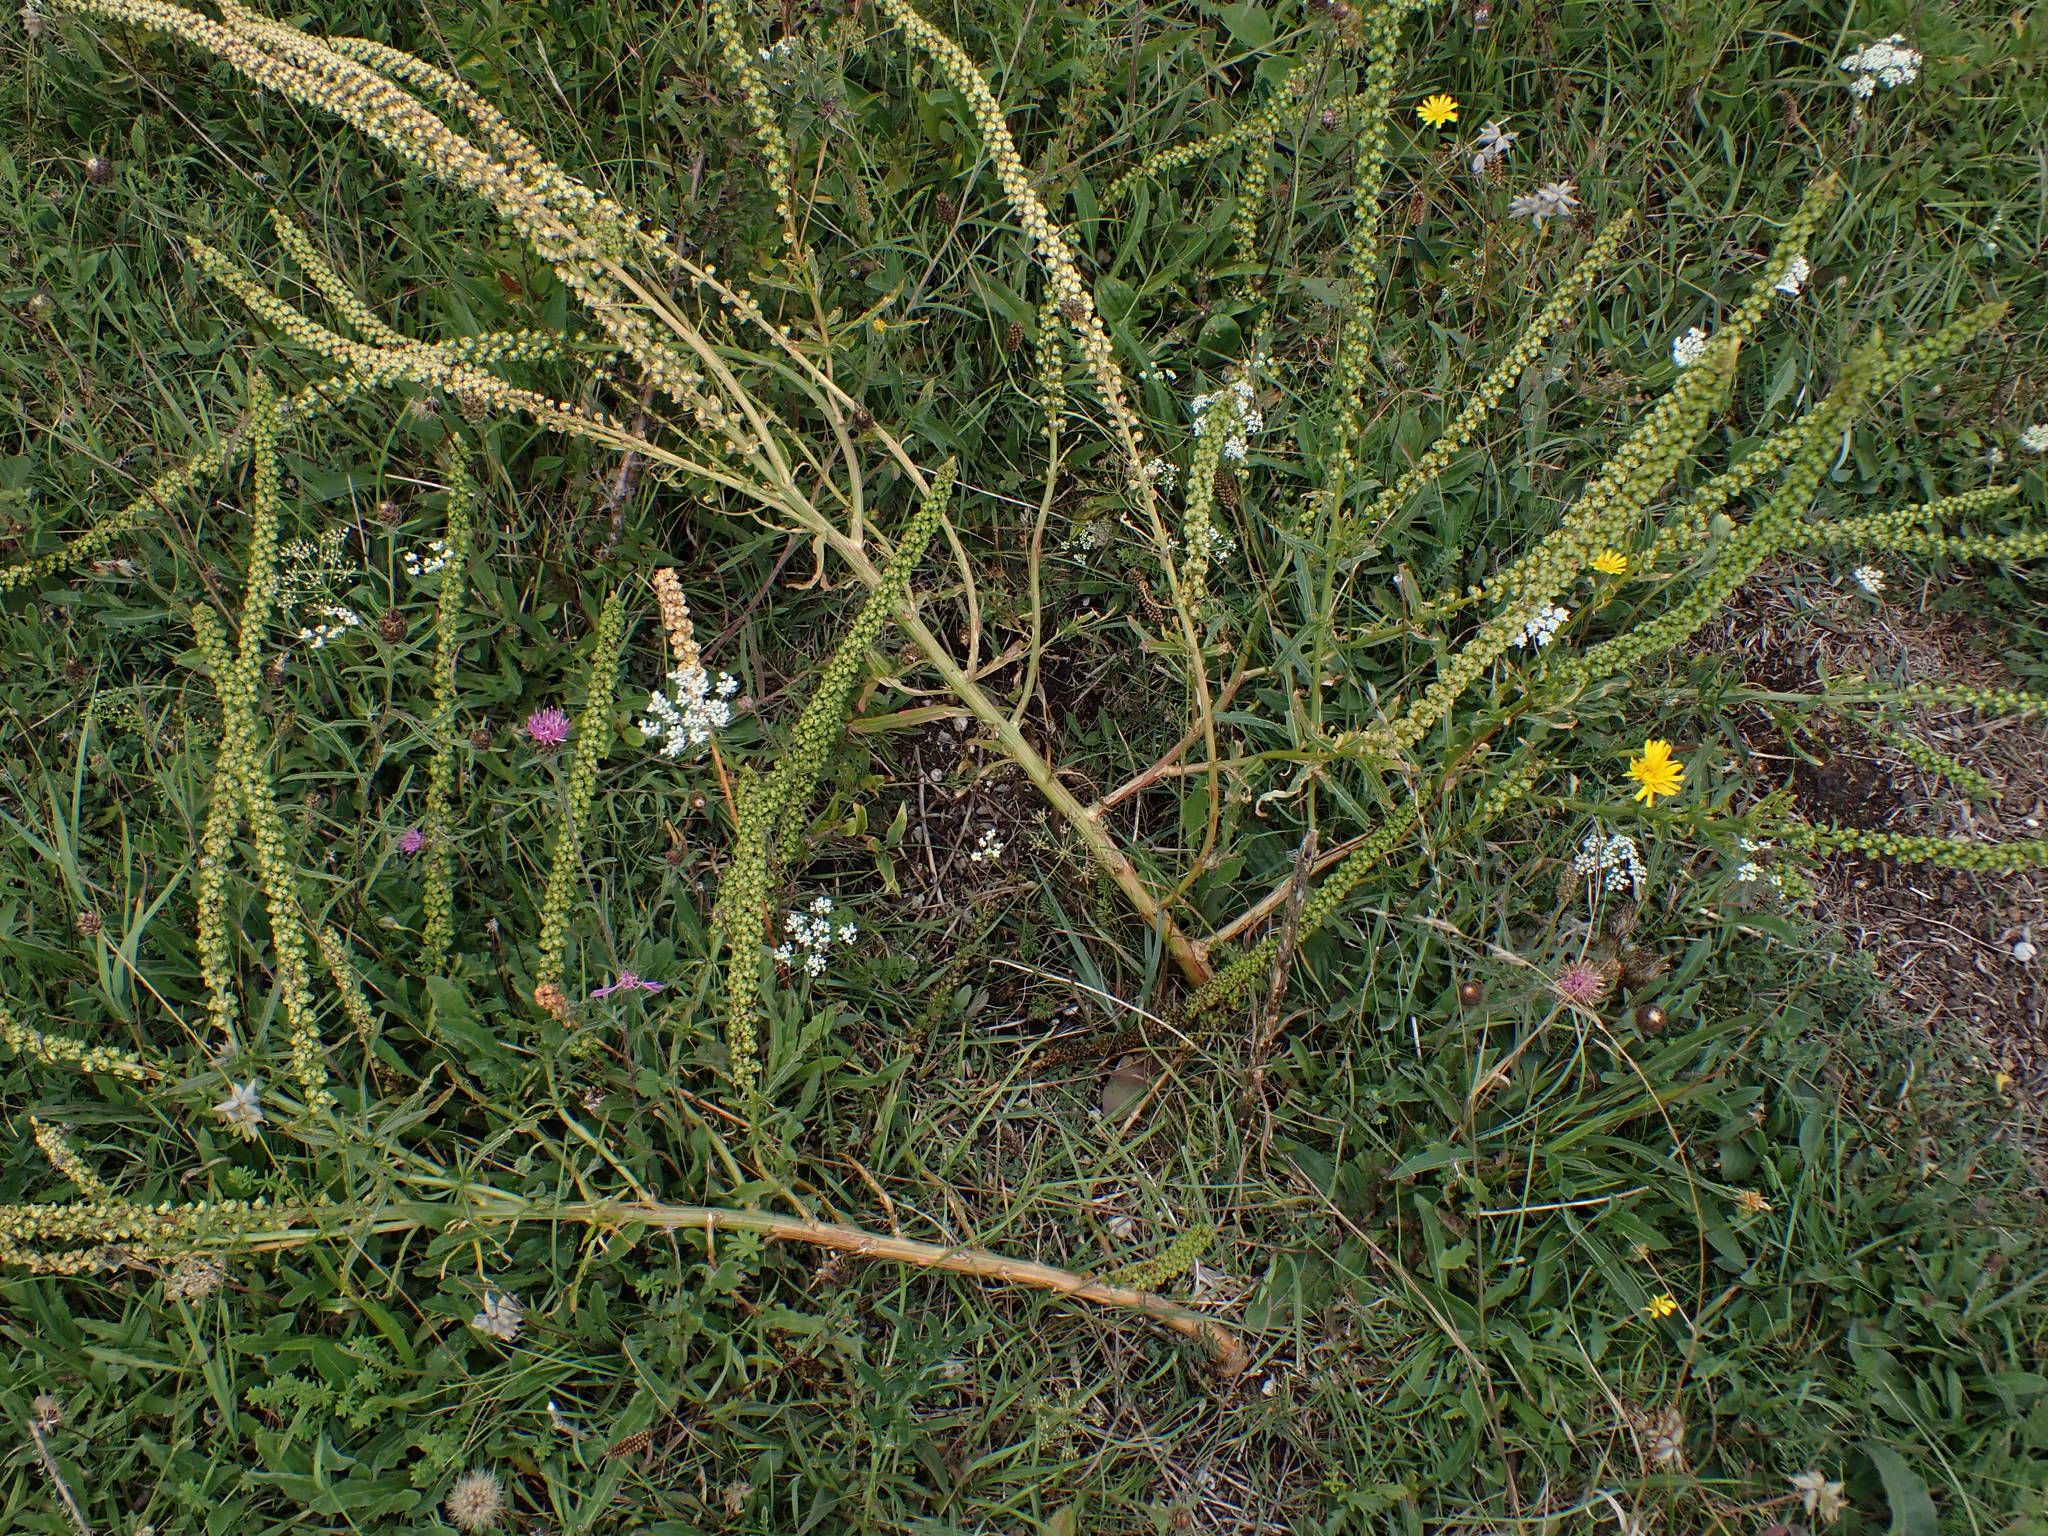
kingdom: Plantae
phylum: Tracheophyta
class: Magnoliopsida
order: Brassicales
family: Resedaceae
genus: Reseda
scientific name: Reseda luteola
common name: Weld
